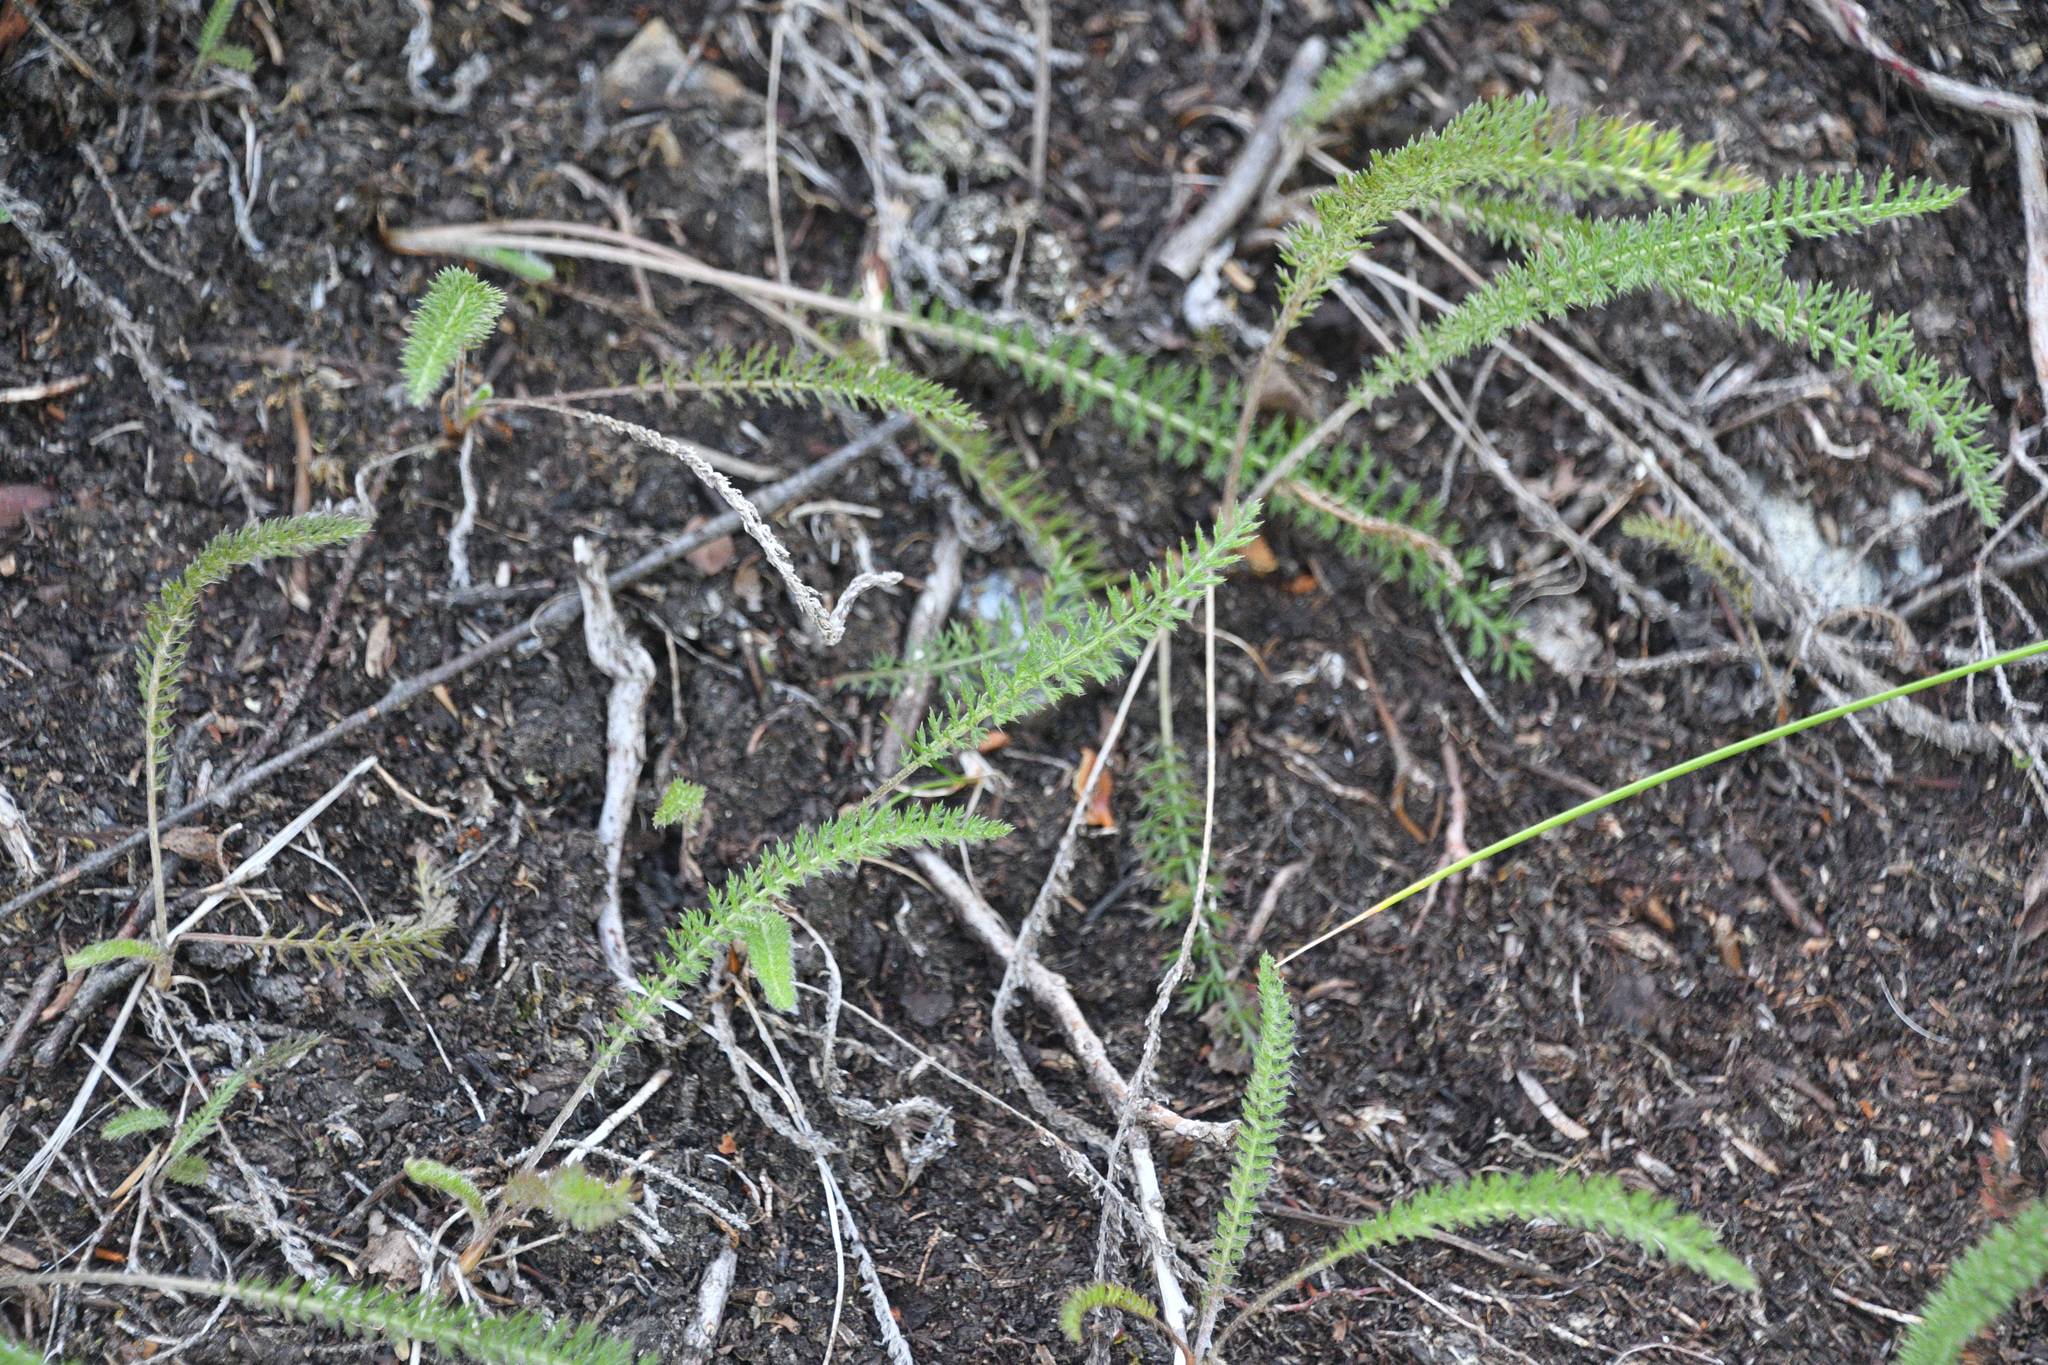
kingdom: Plantae
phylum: Tracheophyta
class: Magnoliopsida
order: Asterales
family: Asteraceae
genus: Achillea
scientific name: Achillea millefolium
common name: Yarrow
